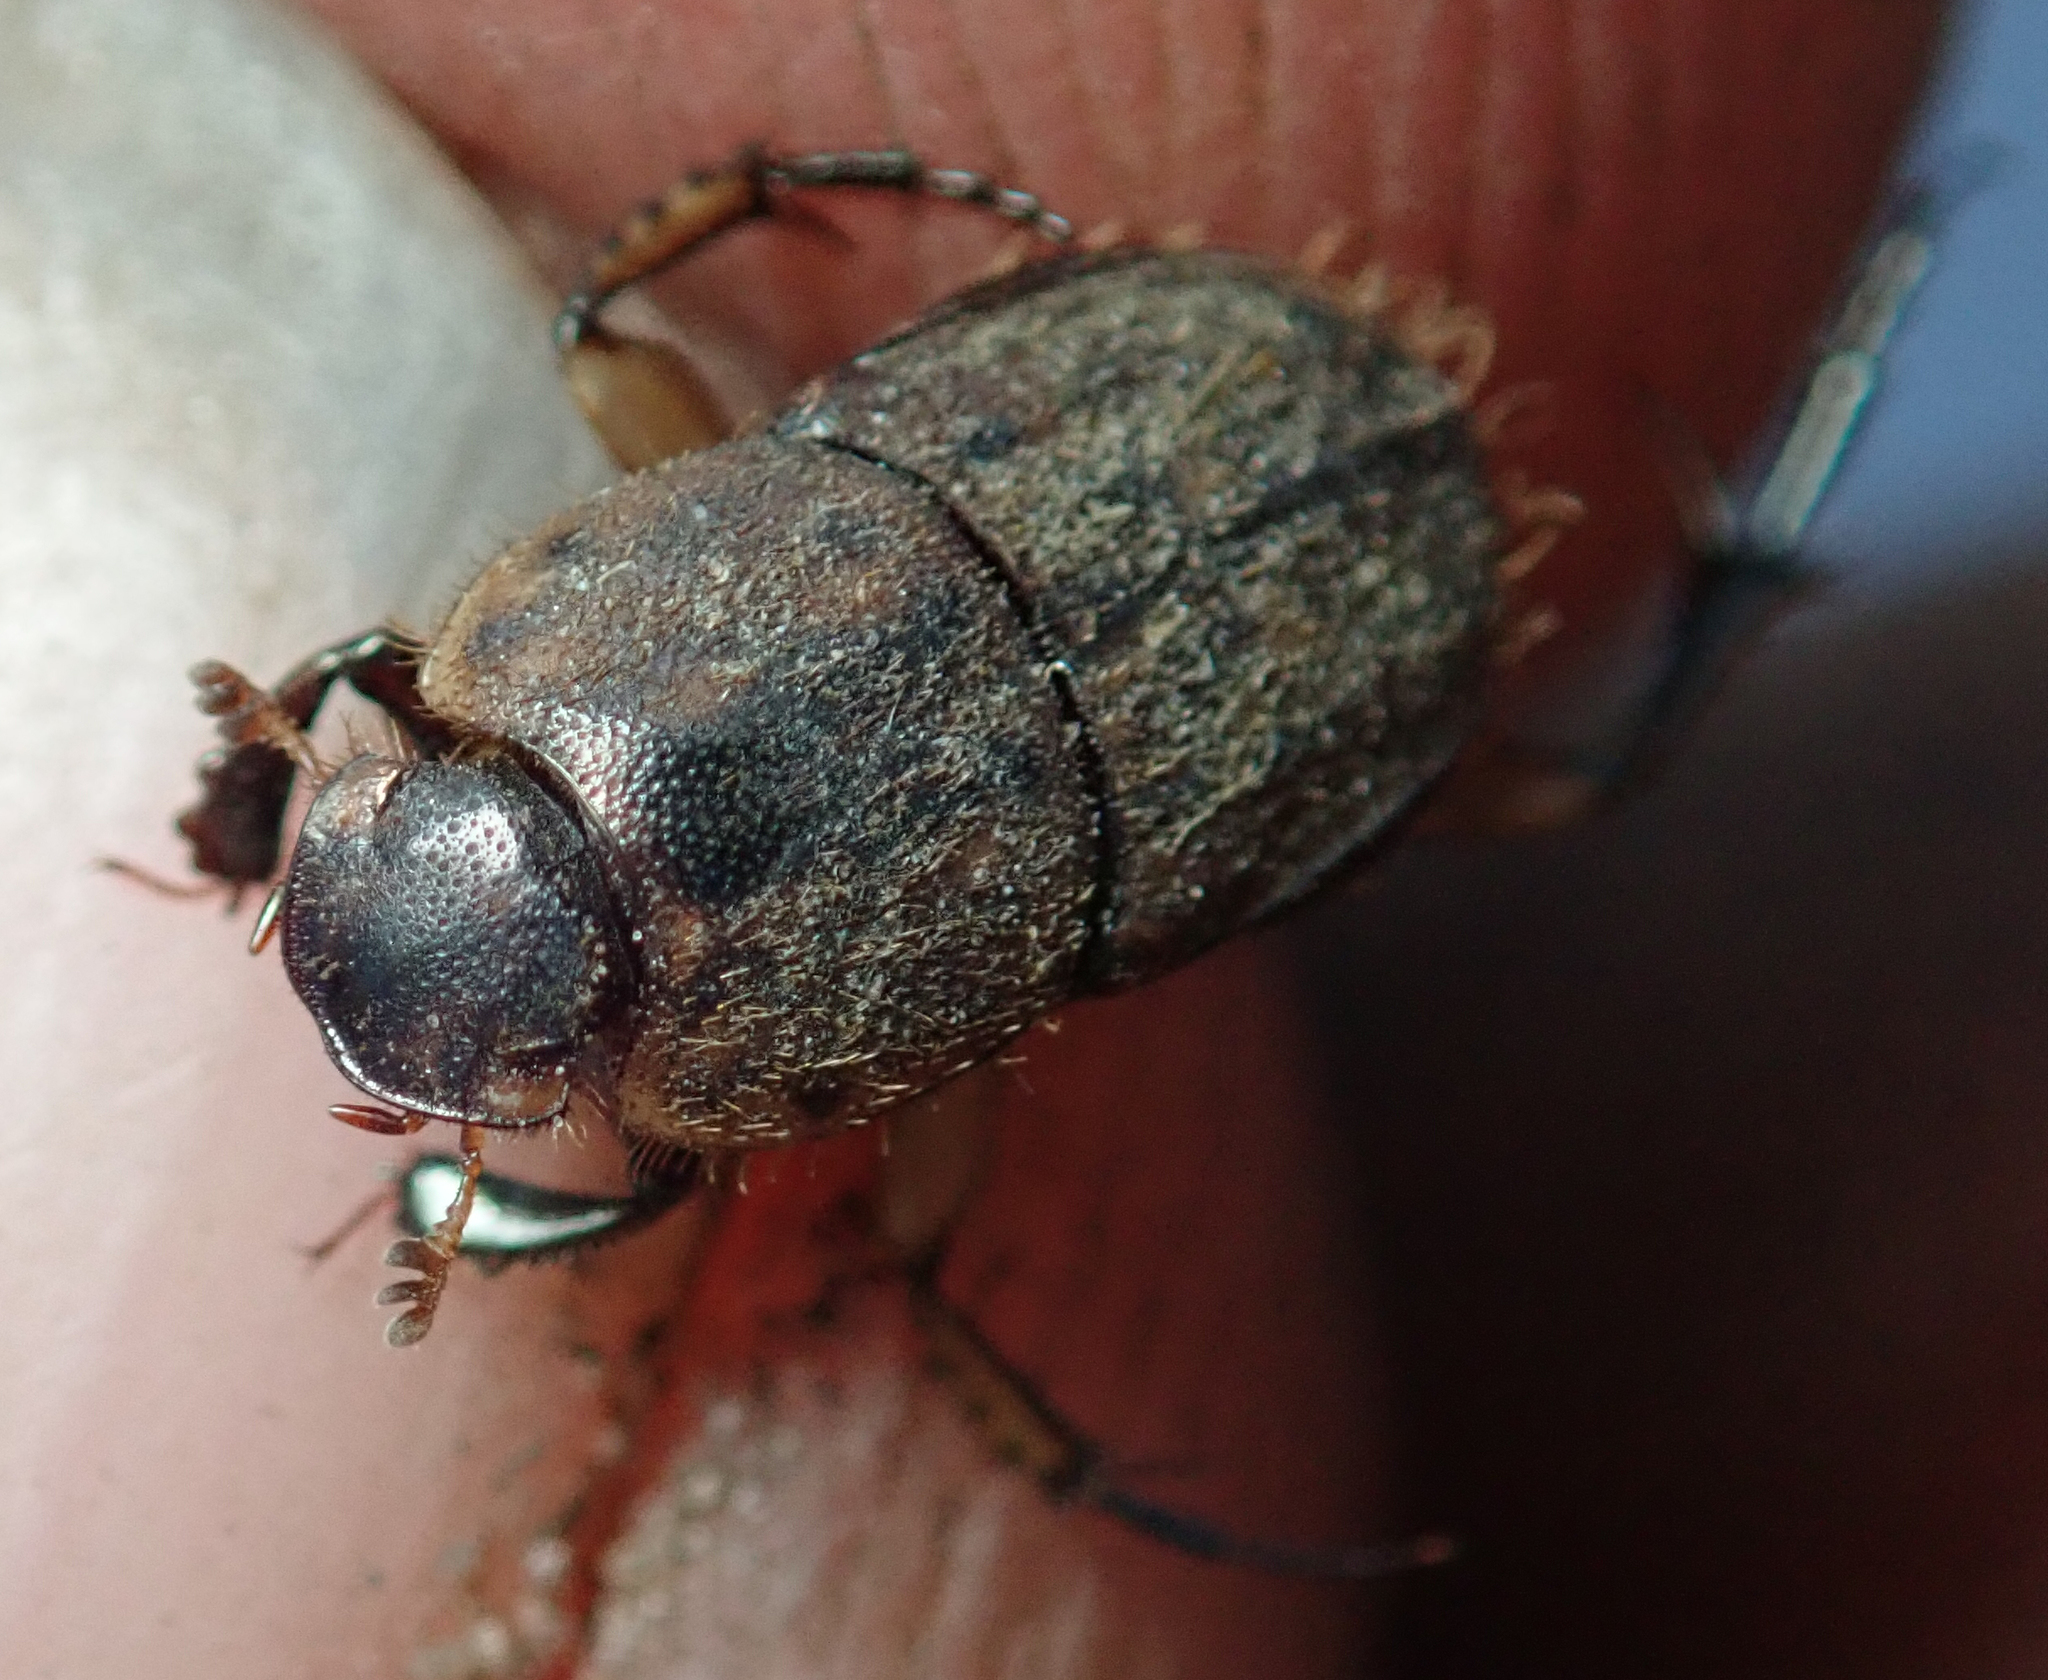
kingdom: Animalia
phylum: Arthropoda
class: Insecta
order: Coleoptera
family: Scarabaeidae
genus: Tiniocellus
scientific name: Tiniocellus spinipes
